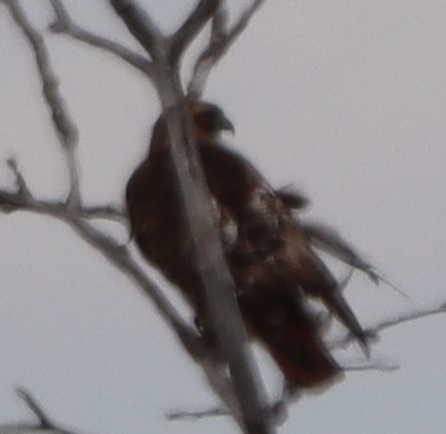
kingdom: Animalia
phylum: Chordata
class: Aves
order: Accipitriformes
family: Accipitridae
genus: Buteo
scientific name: Buteo jamaicensis
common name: Red-tailed hawk
